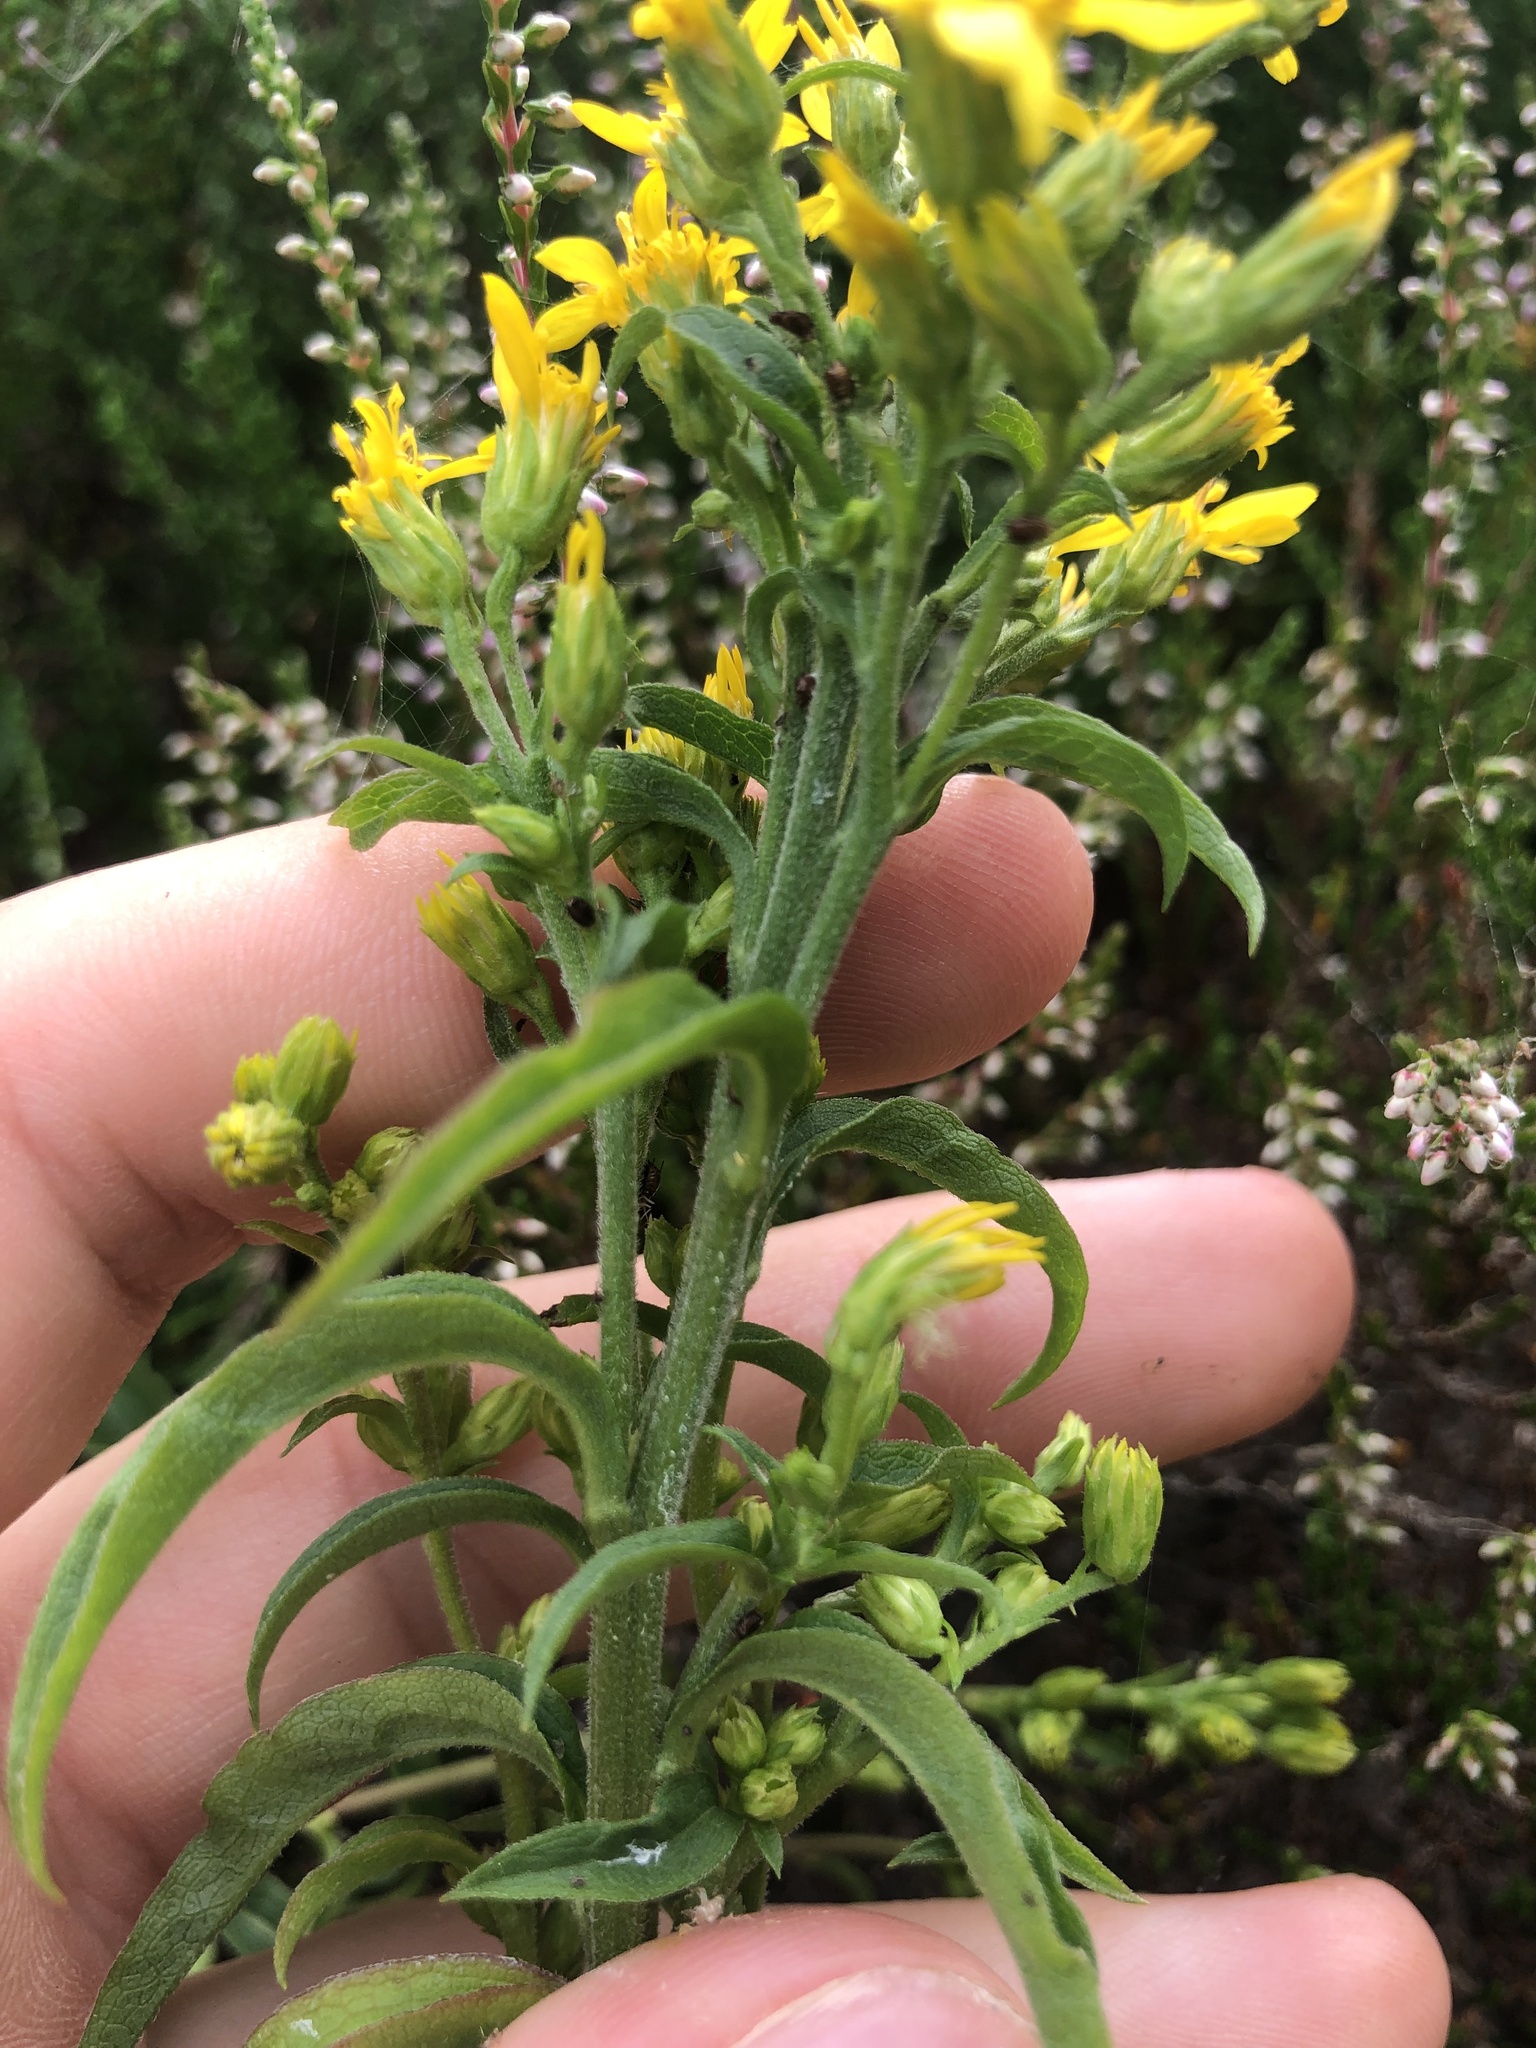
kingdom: Plantae
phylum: Tracheophyta
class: Magnoliopsida
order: Asterales
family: Asteraceae
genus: Solidago
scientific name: Solidago virgaurea
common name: Goldenrod
